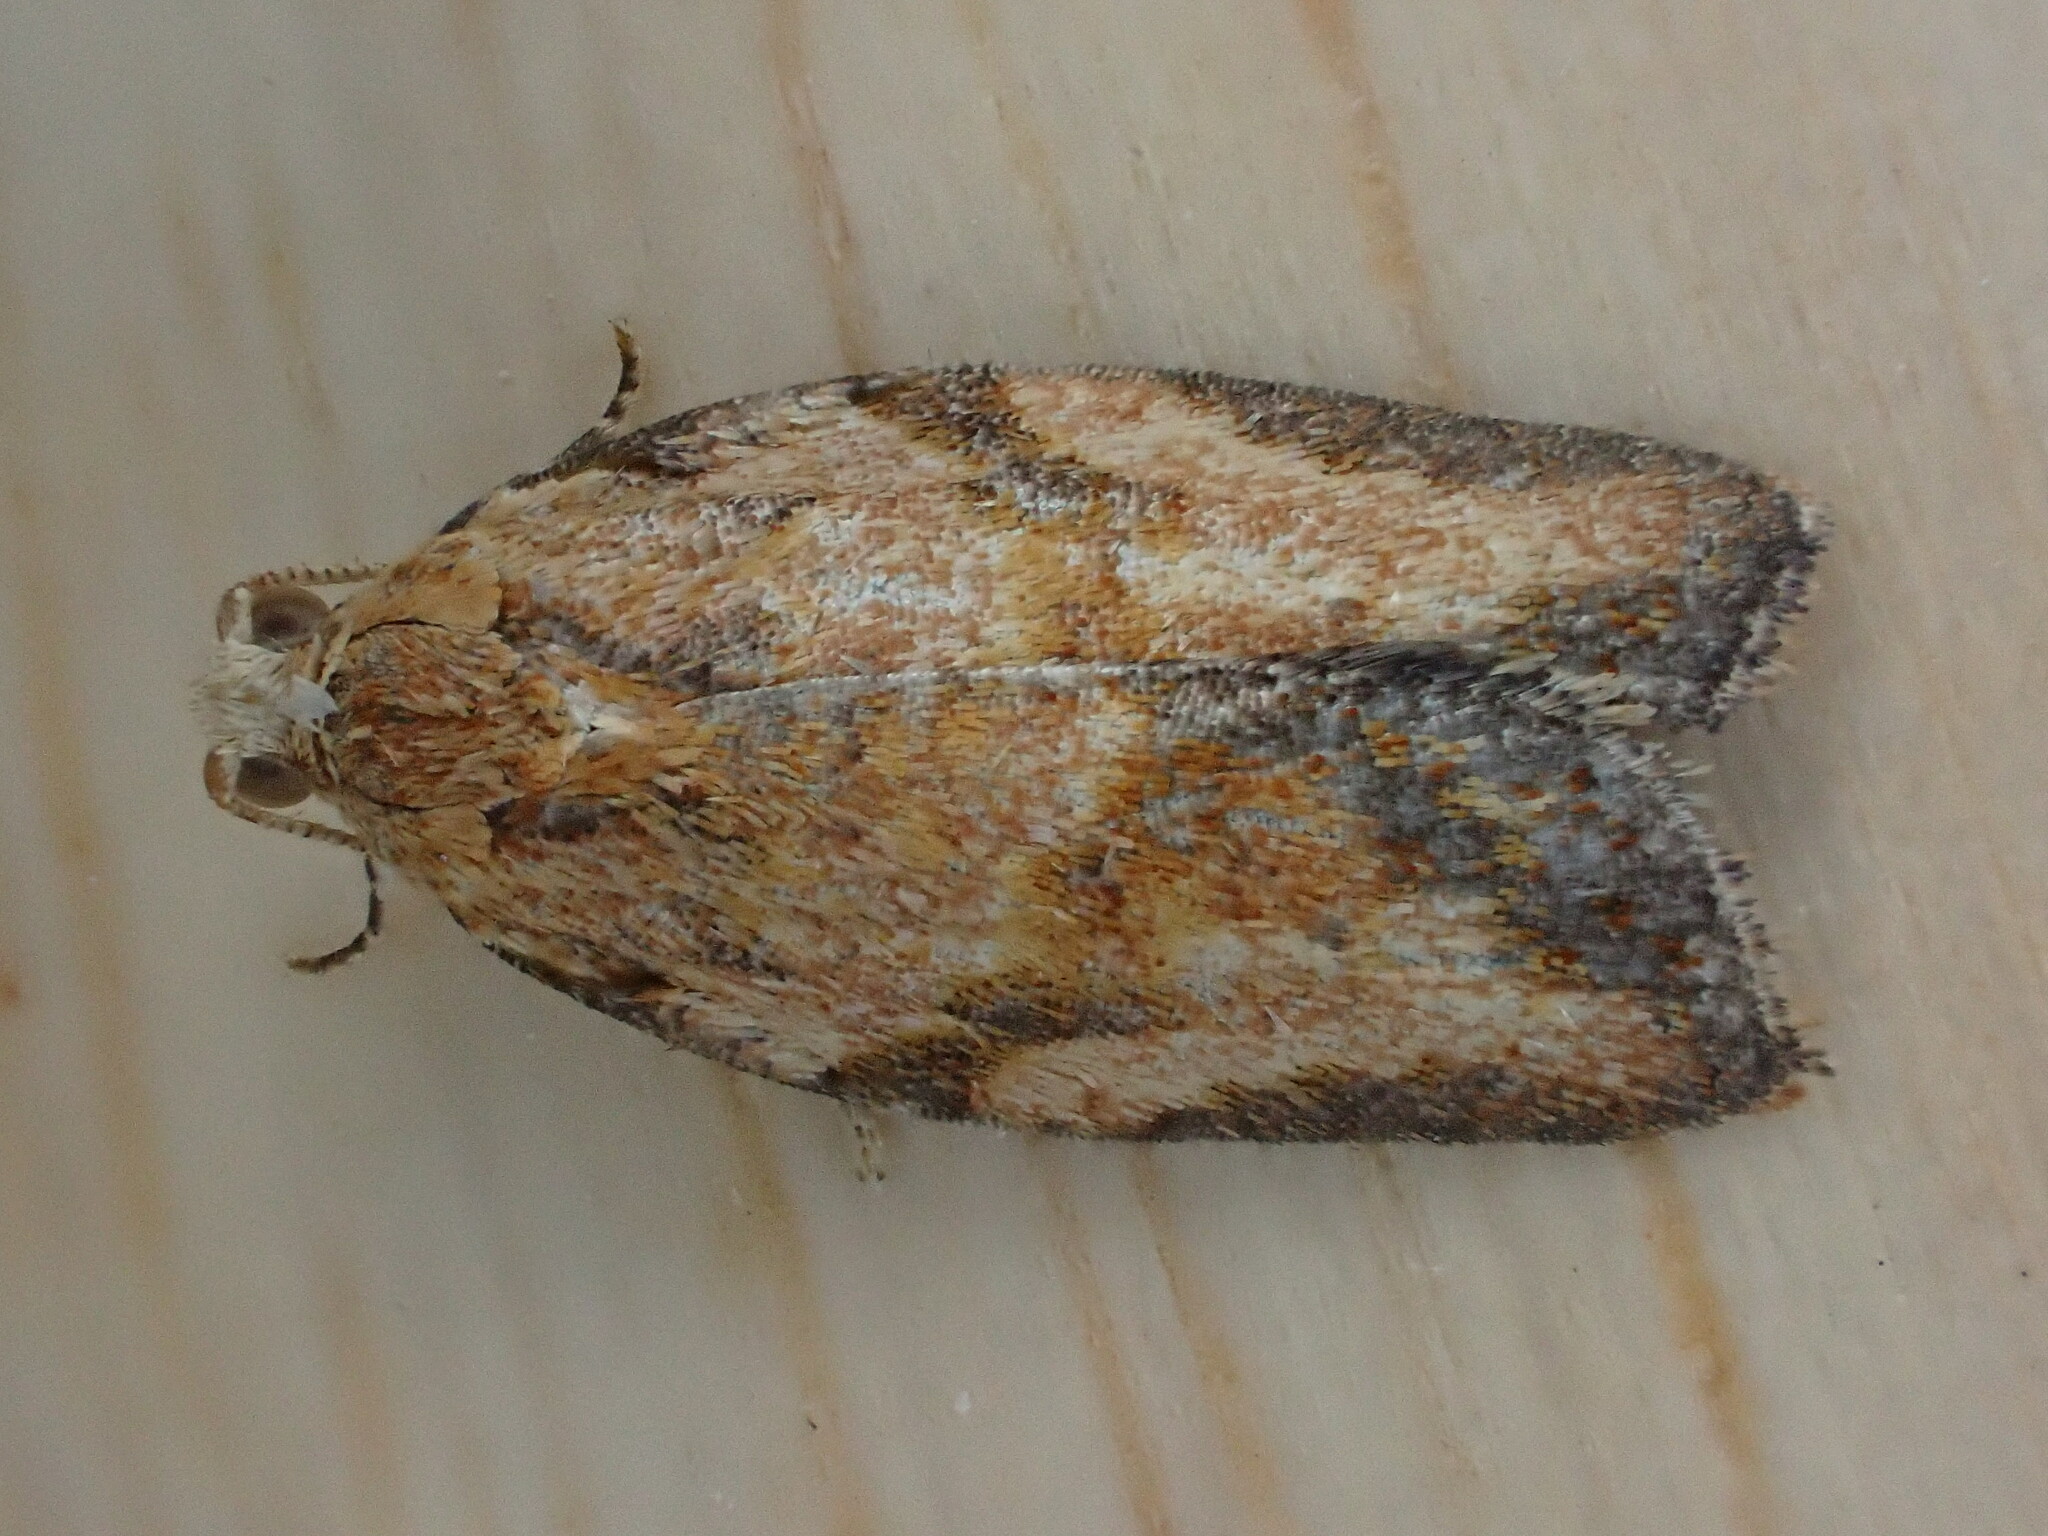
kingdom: Animalia
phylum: Arthropoda
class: Insecta
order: Lepidoptera
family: Tortricidae
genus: Epiphyas
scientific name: Epiphyas postvittana
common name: Light brown apple moth
